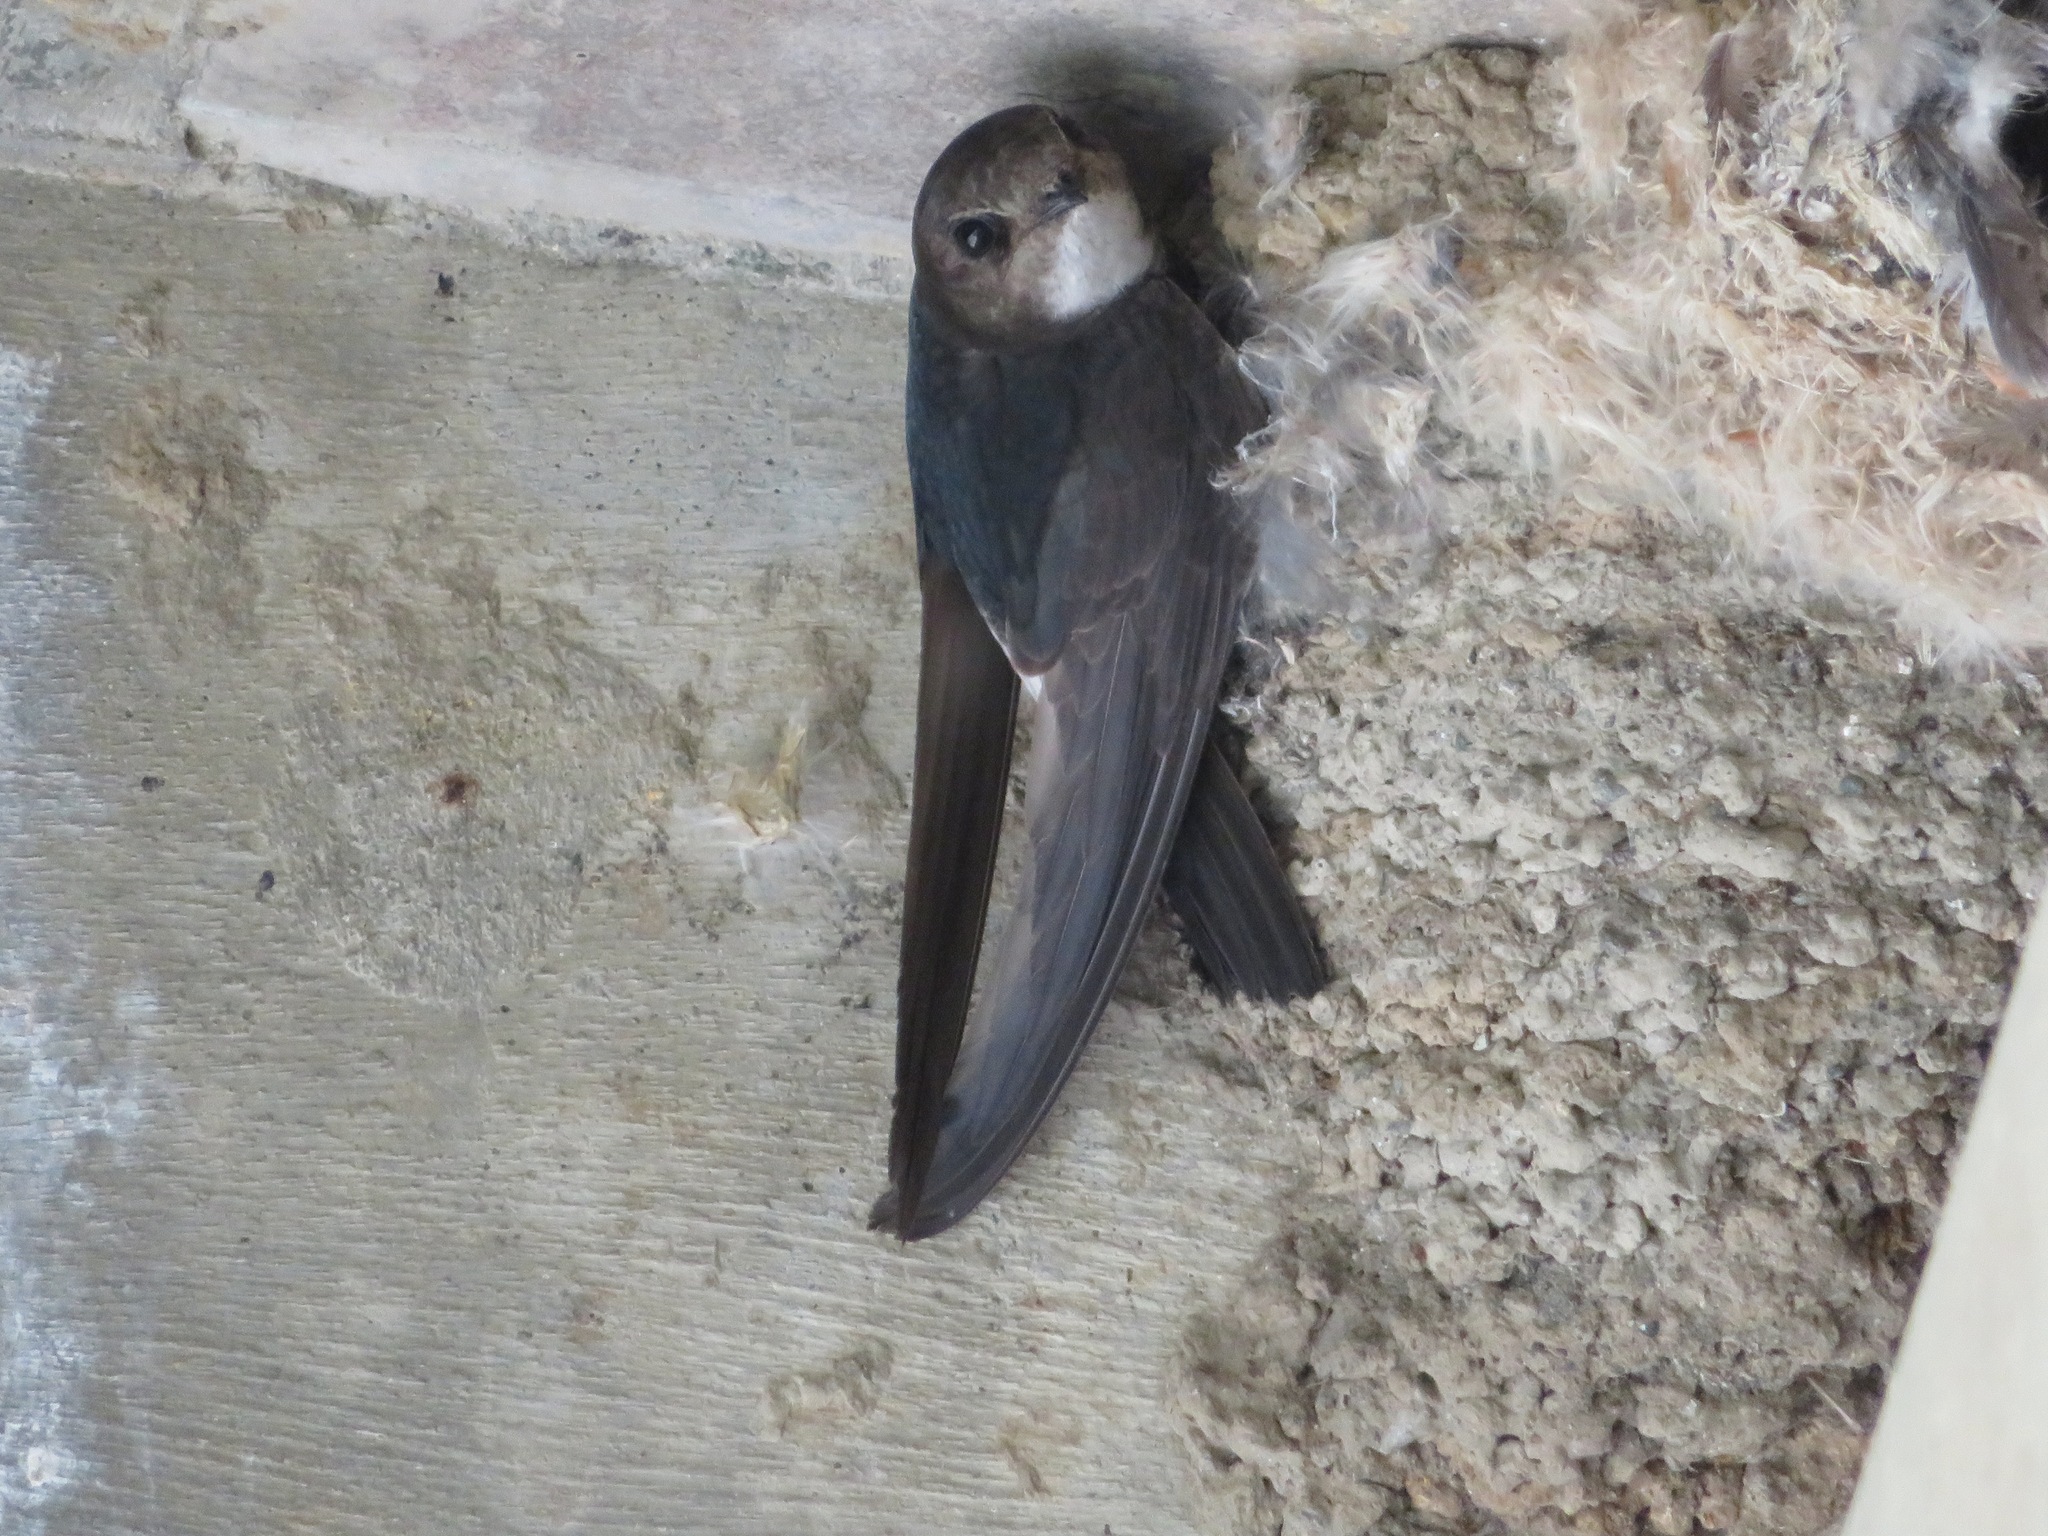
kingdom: Animalia
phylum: Chordata
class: Aves
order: Apodiformes
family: Apodidae
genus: Apus
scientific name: Apus nipalensis
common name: House swift
